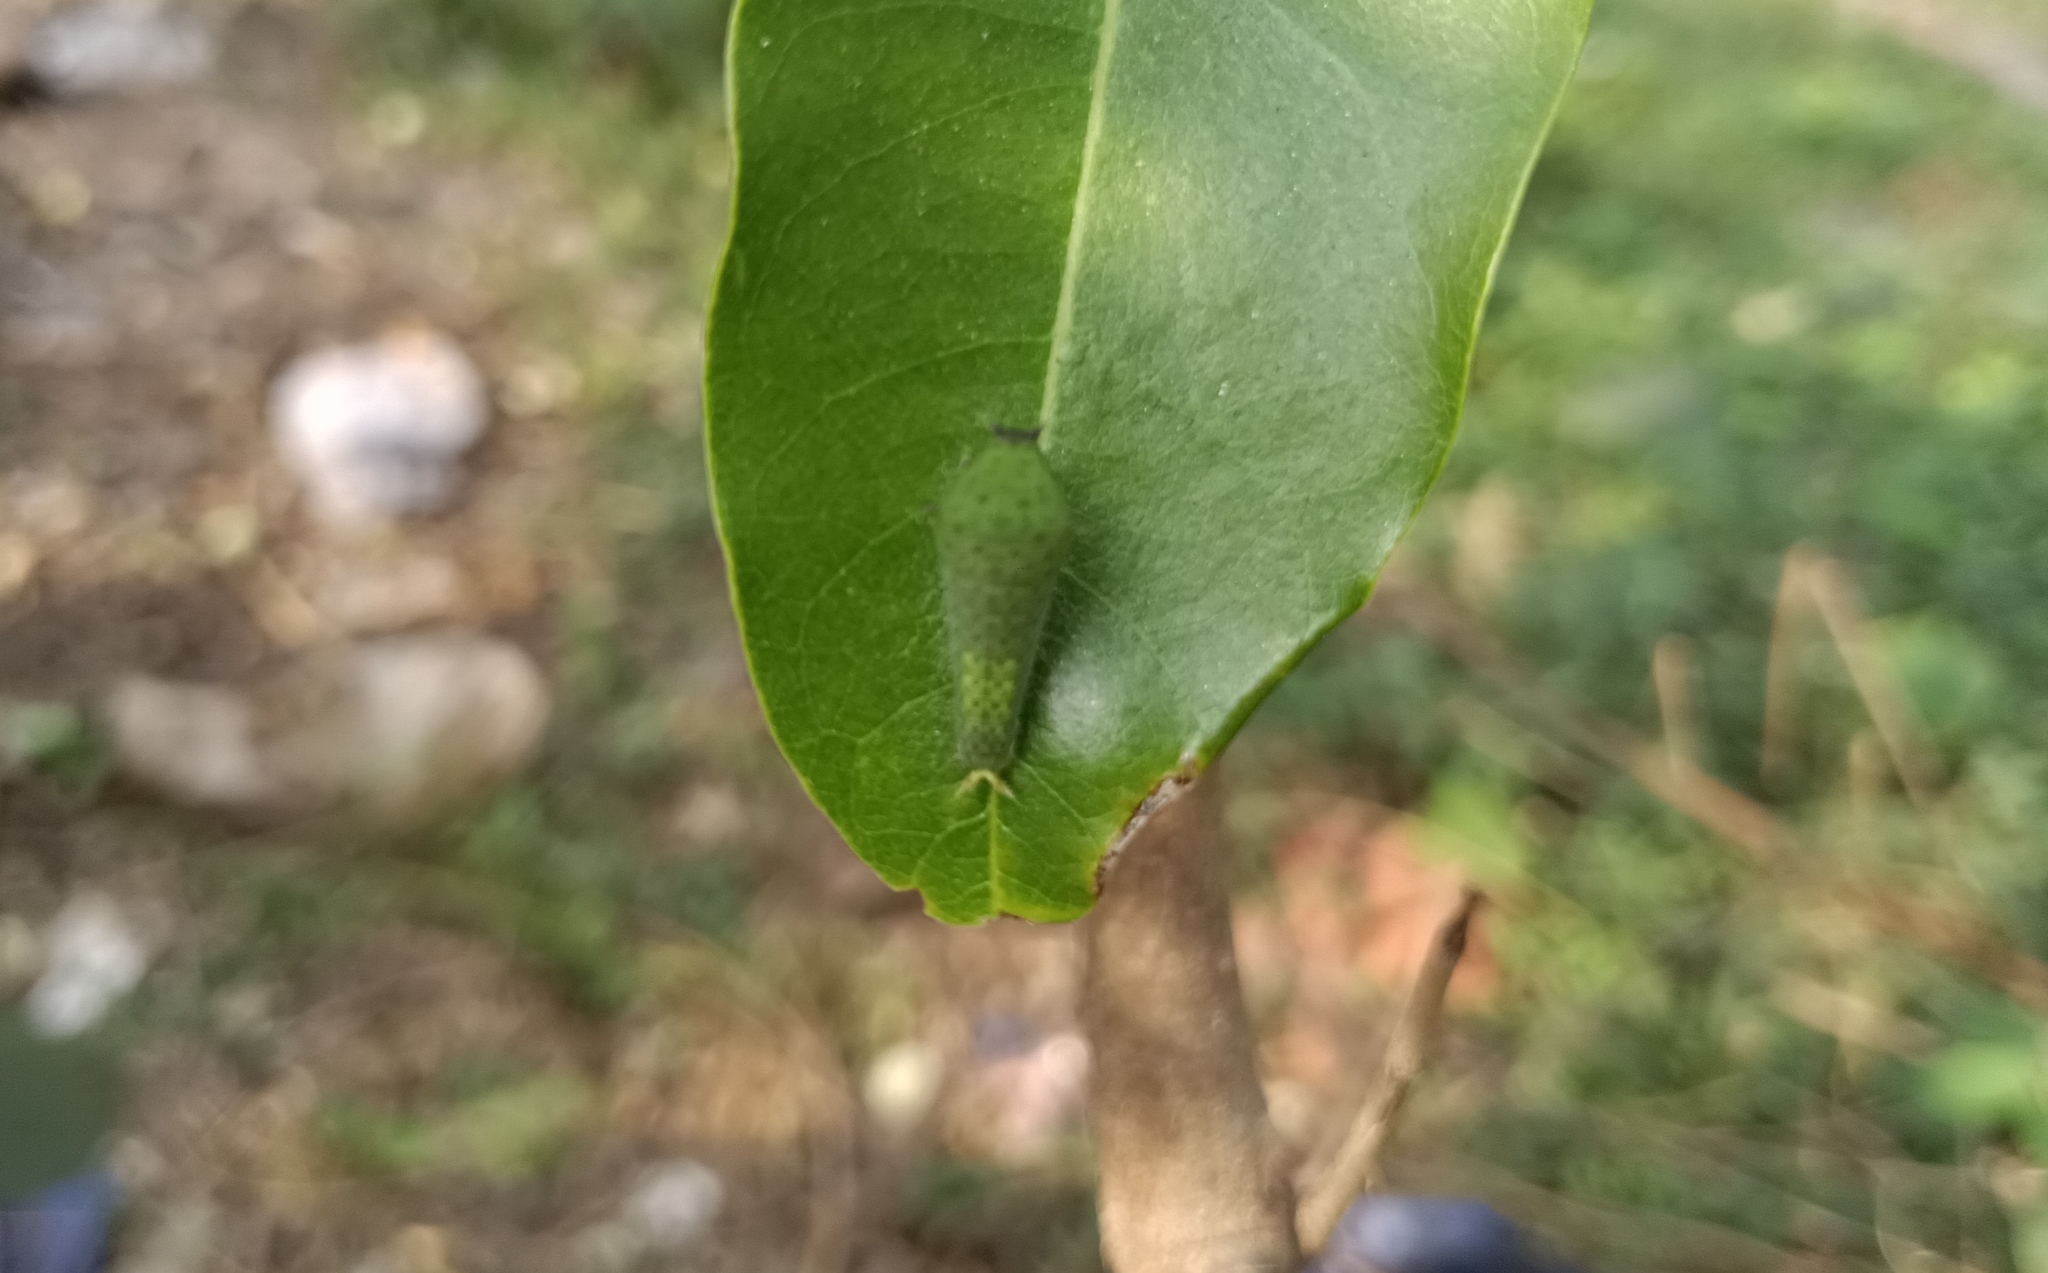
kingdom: Animalia
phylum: Arthropoda
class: Insecta
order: Lepidoptera
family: Papilionidae
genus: Graphium
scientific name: Graphium agamemnon
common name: Tailed jay
